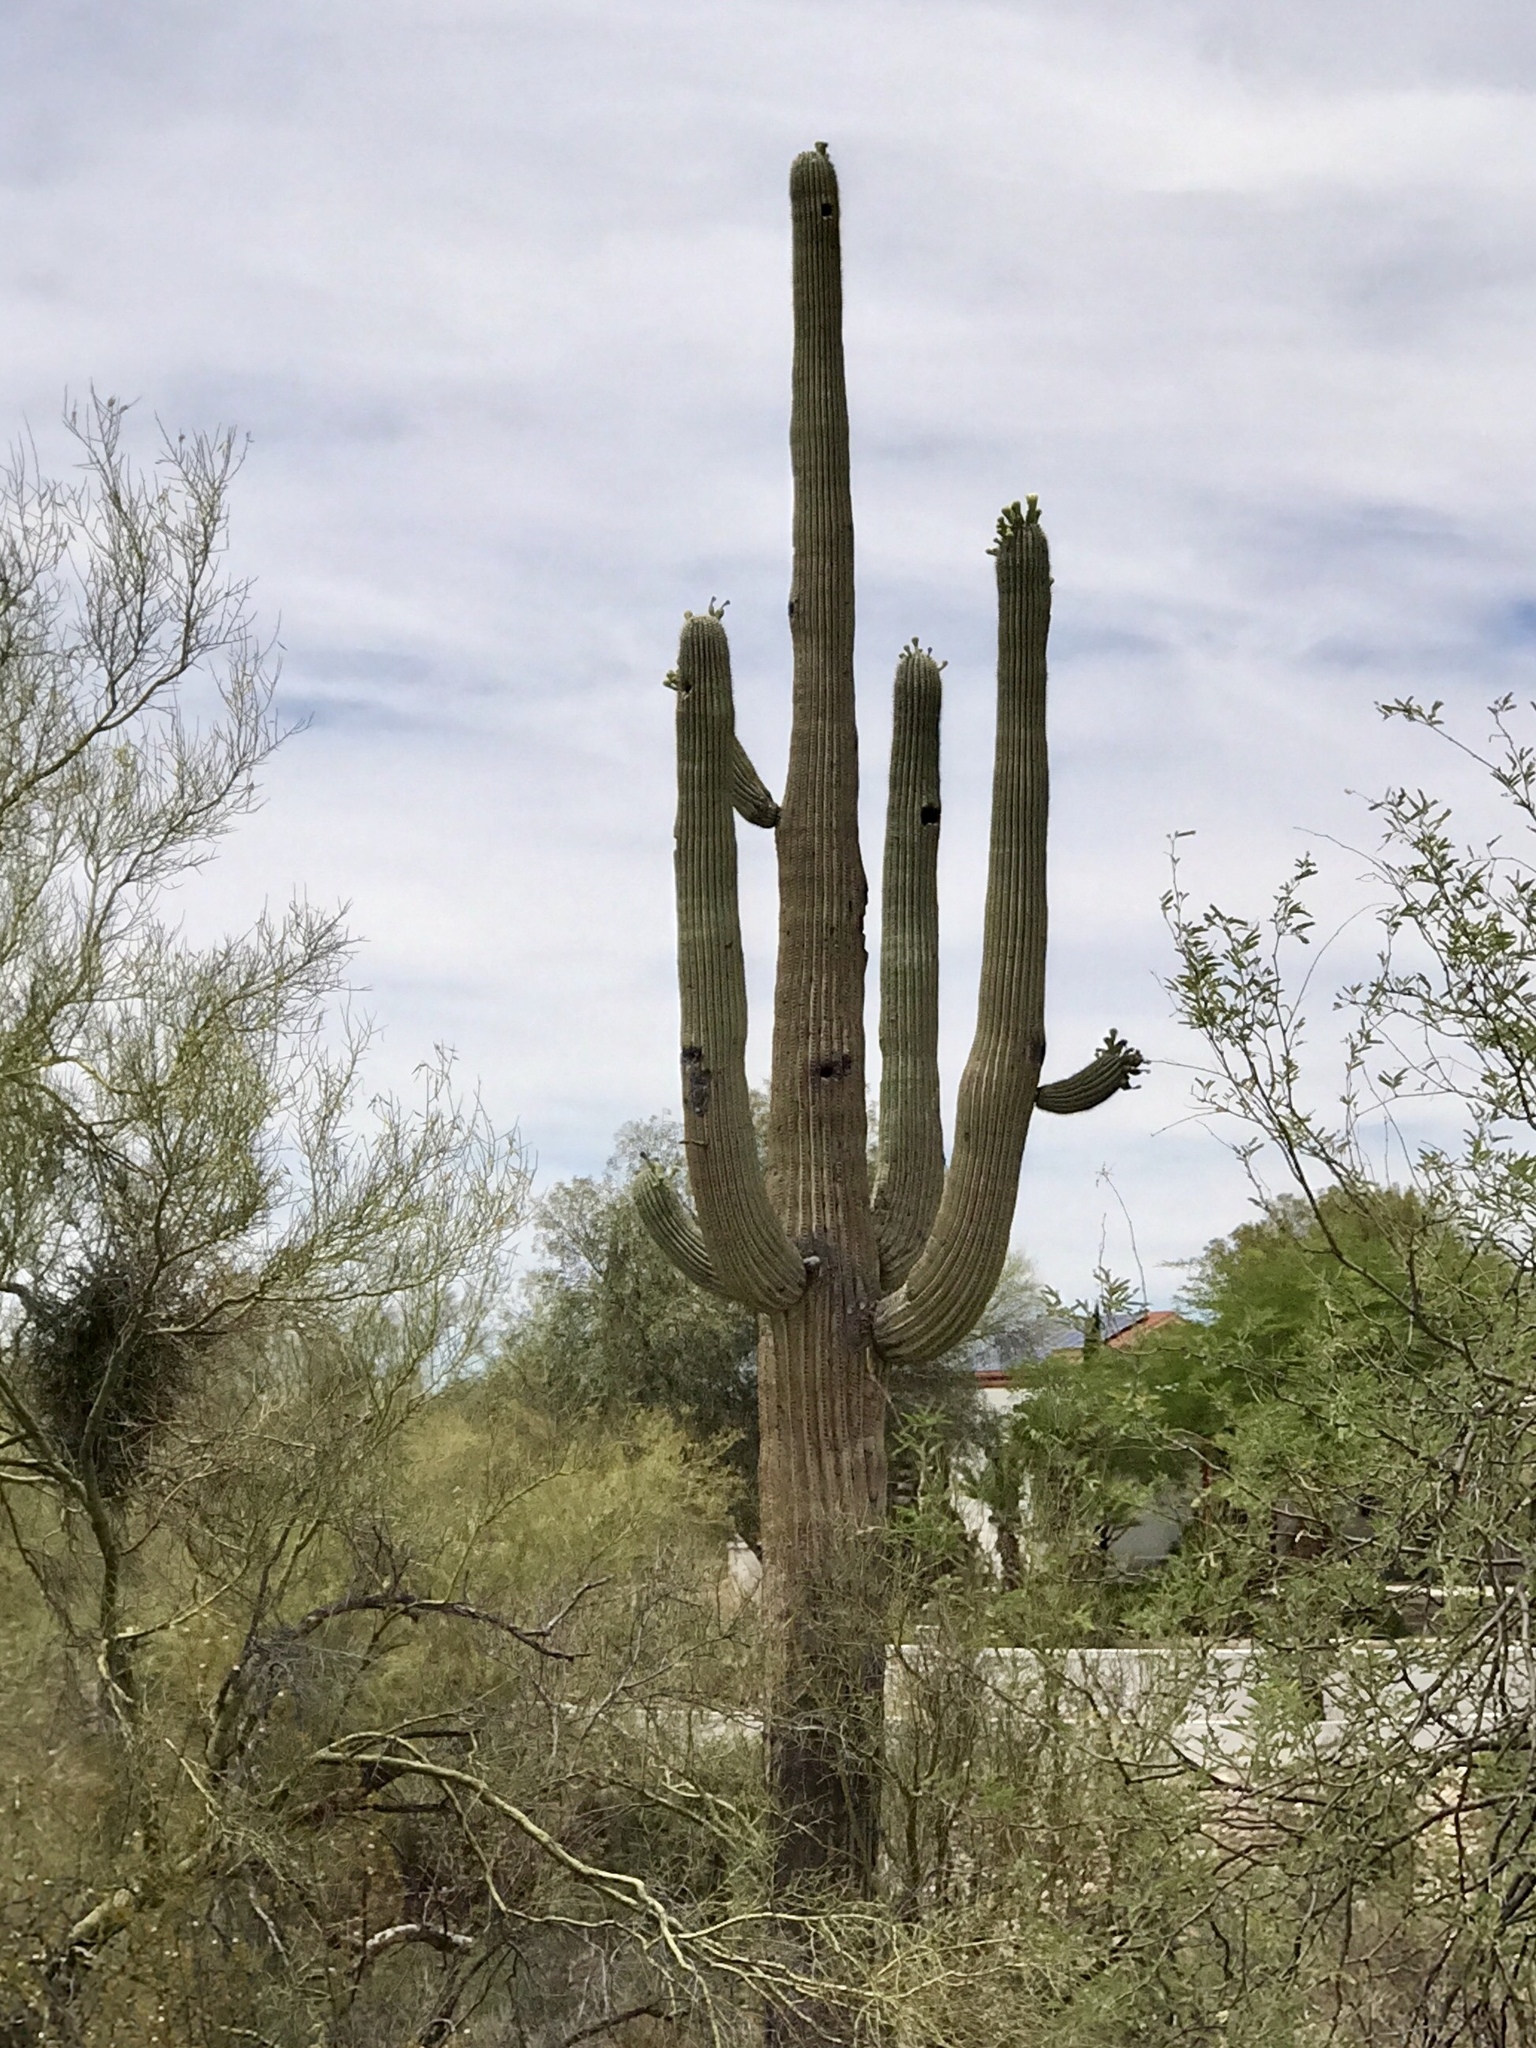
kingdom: Plantae
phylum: Tracheophyta
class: Magnoliopsida
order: Caryophyllales
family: Cactaceae
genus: Carnegiea
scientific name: Carnegiea gigantea
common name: Saguaro
